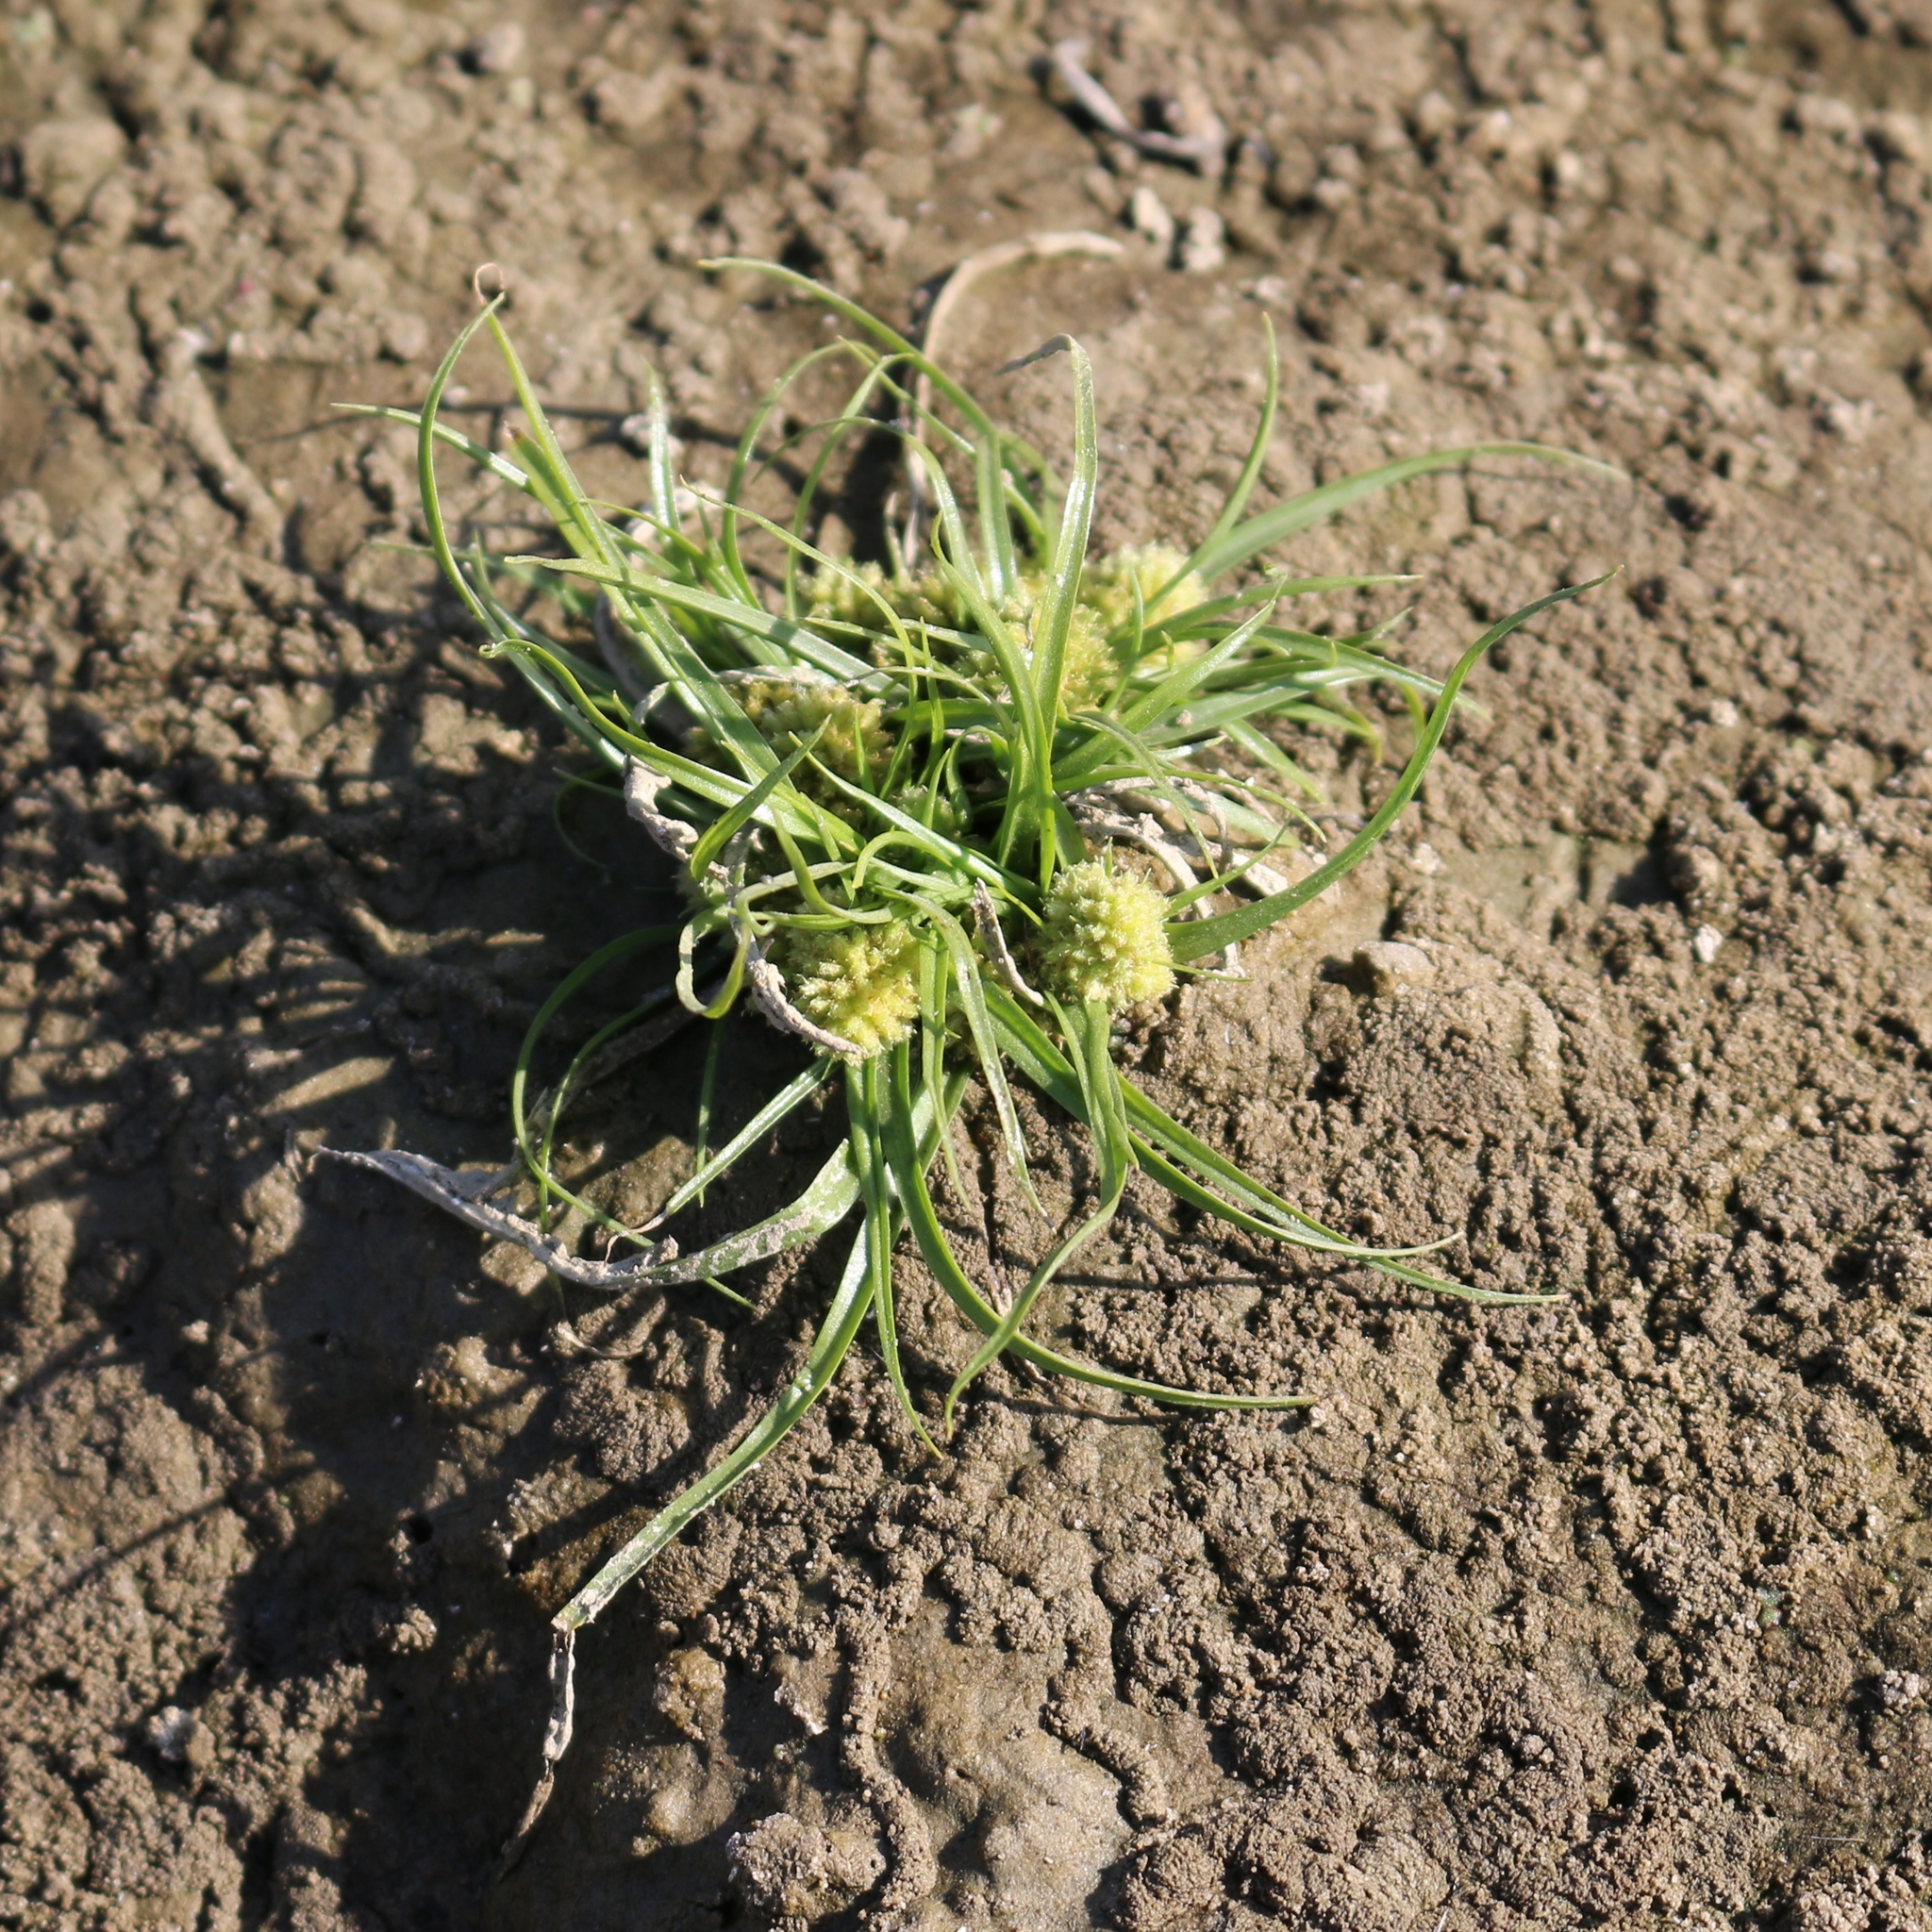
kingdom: Plantae
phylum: Tracheophyta
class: Liliopsida
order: Poales
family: Cyperaceae
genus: Cyperus
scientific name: Cyperus michelianus
